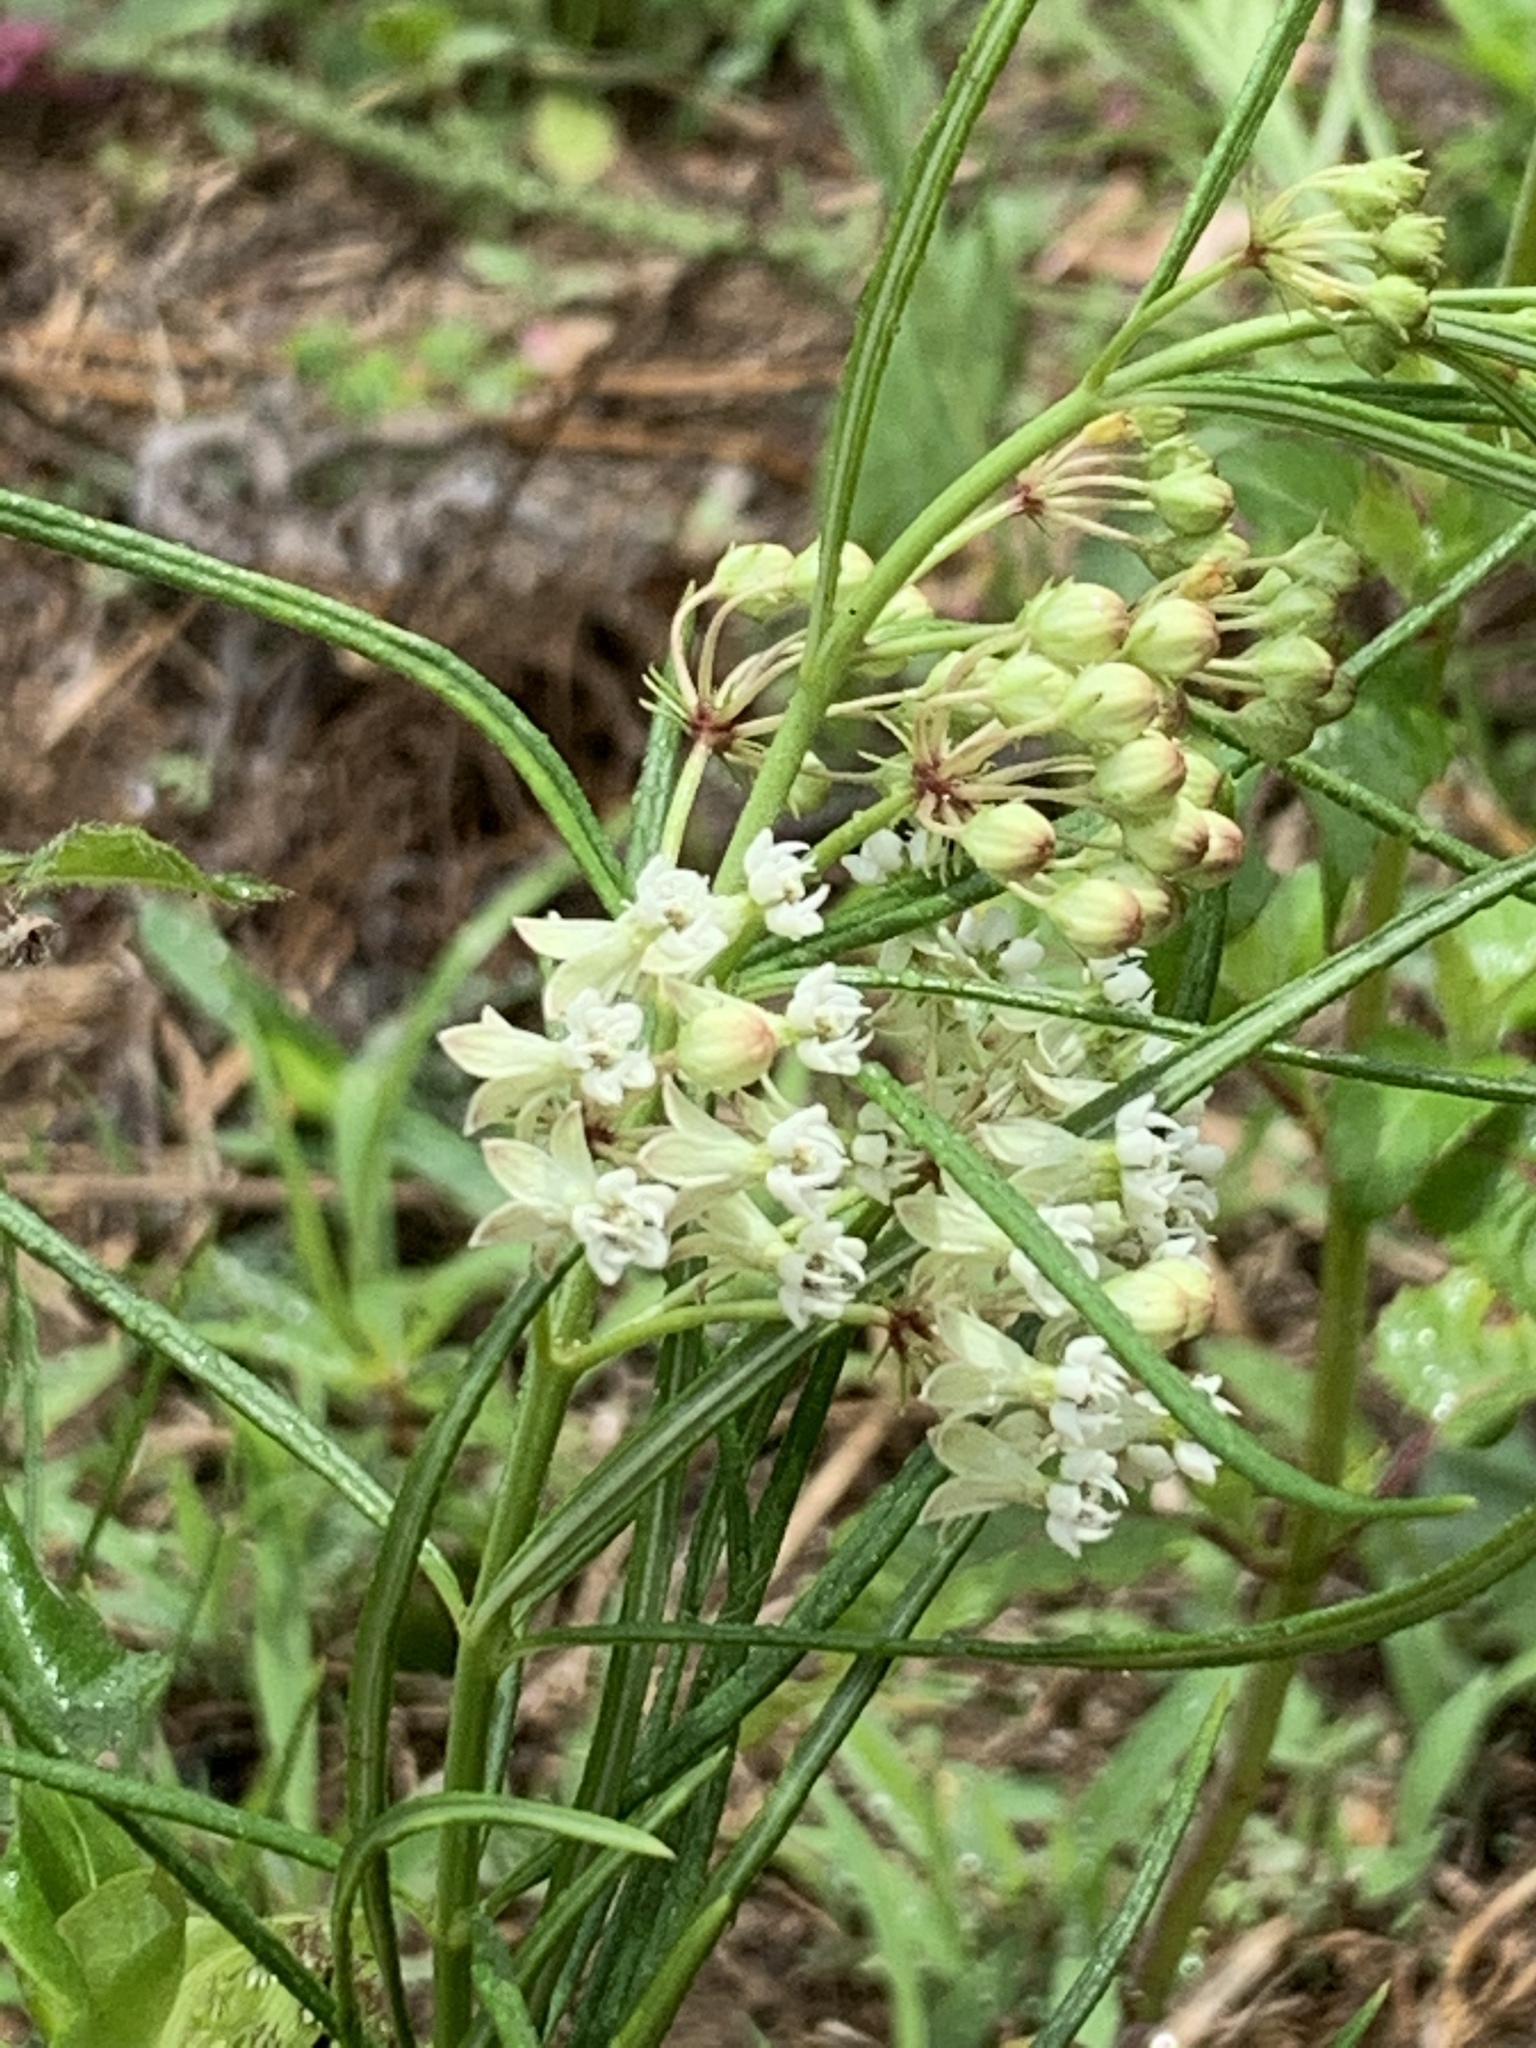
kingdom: Plantae
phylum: Tracheophyta
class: Magnoliopsida
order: Gentianales
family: Apocynaceae
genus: Asclepias
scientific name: Asclepias verticillata
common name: Eastern whorled milkweed
